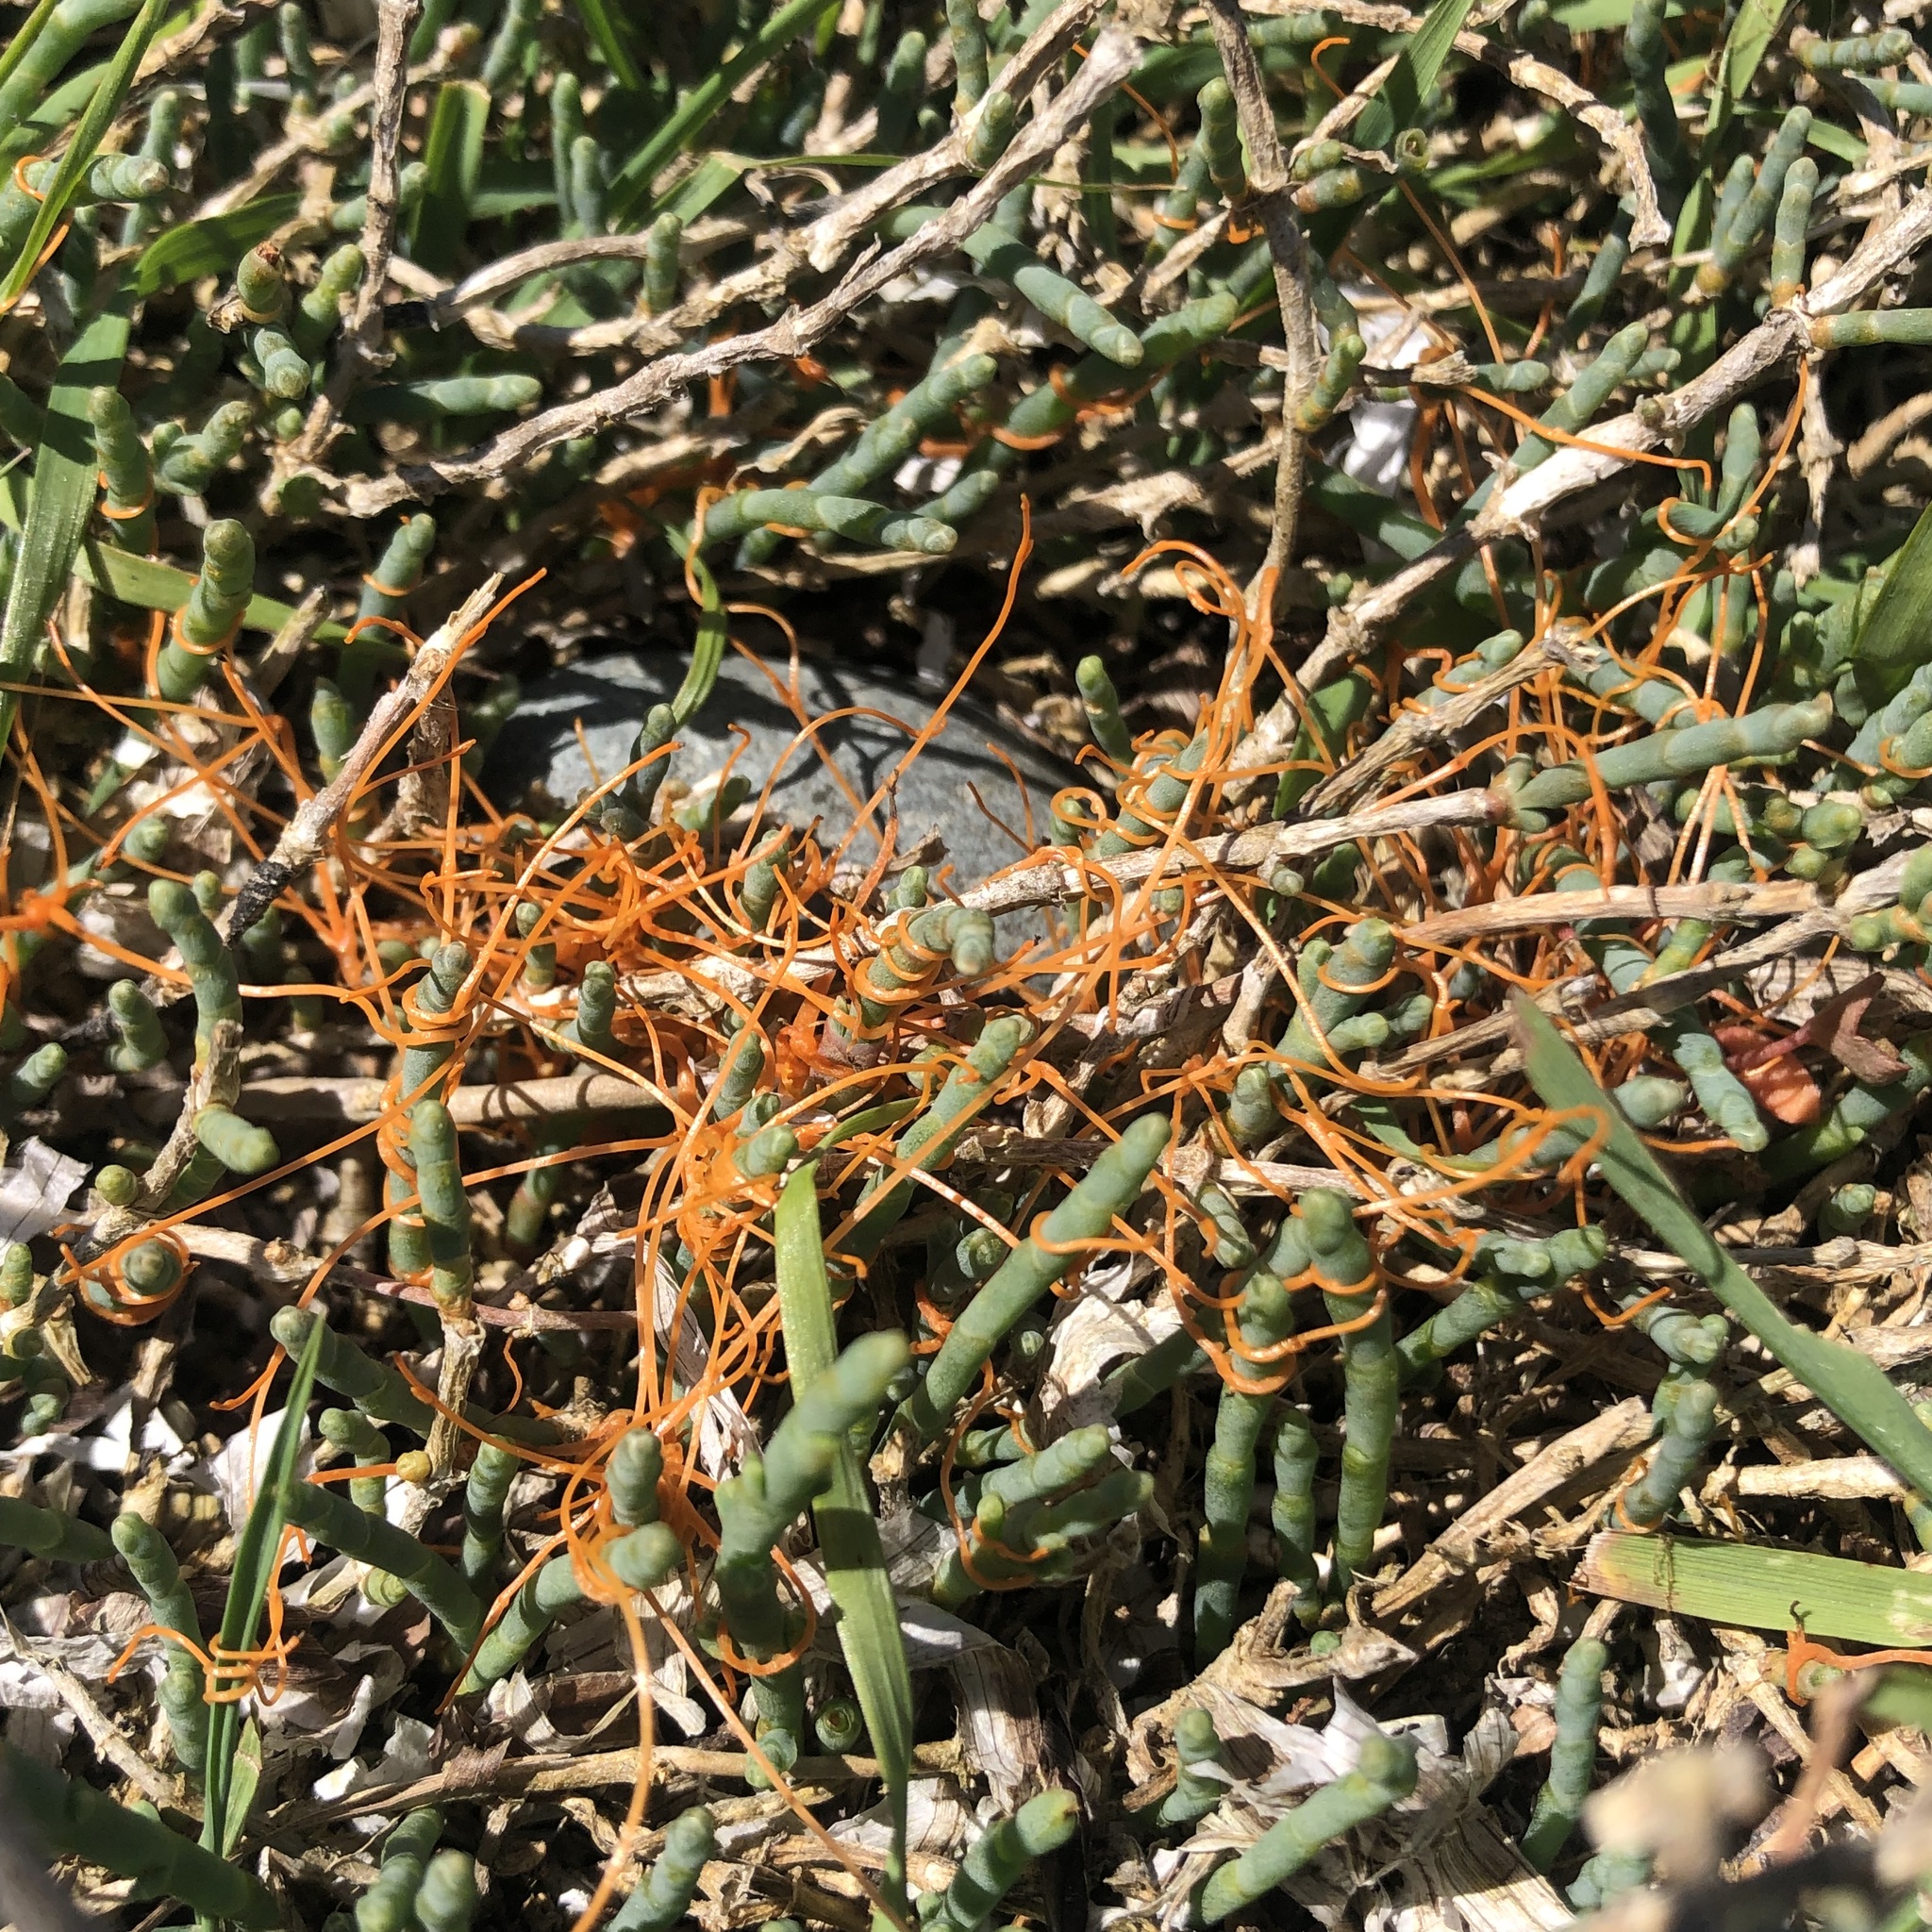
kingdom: Plantae
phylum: Tracheophyta
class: Magnoliopsida
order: Solanales
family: Convolvulaceae
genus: Cuscuta
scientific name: Cuscuta pacifica
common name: Large saltmarsh dodder
